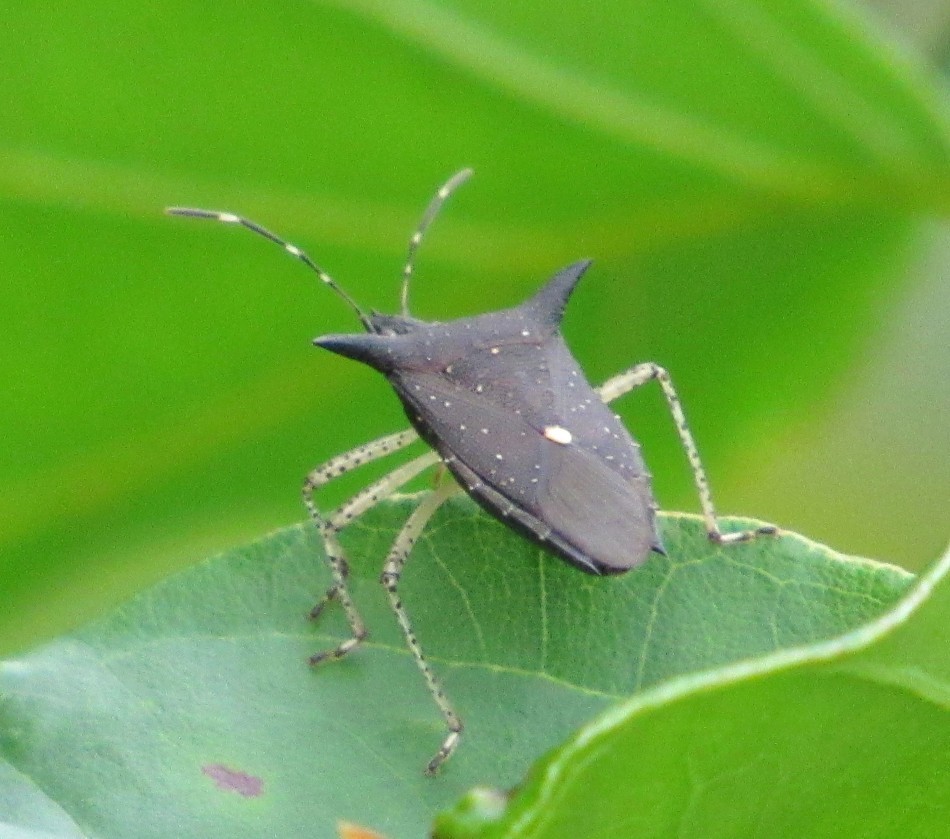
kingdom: Animalia
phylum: Arthropoda
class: Insecta
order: Hemiptera
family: Pentatomidae
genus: Proxys
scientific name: Proxys albopunctulatus
